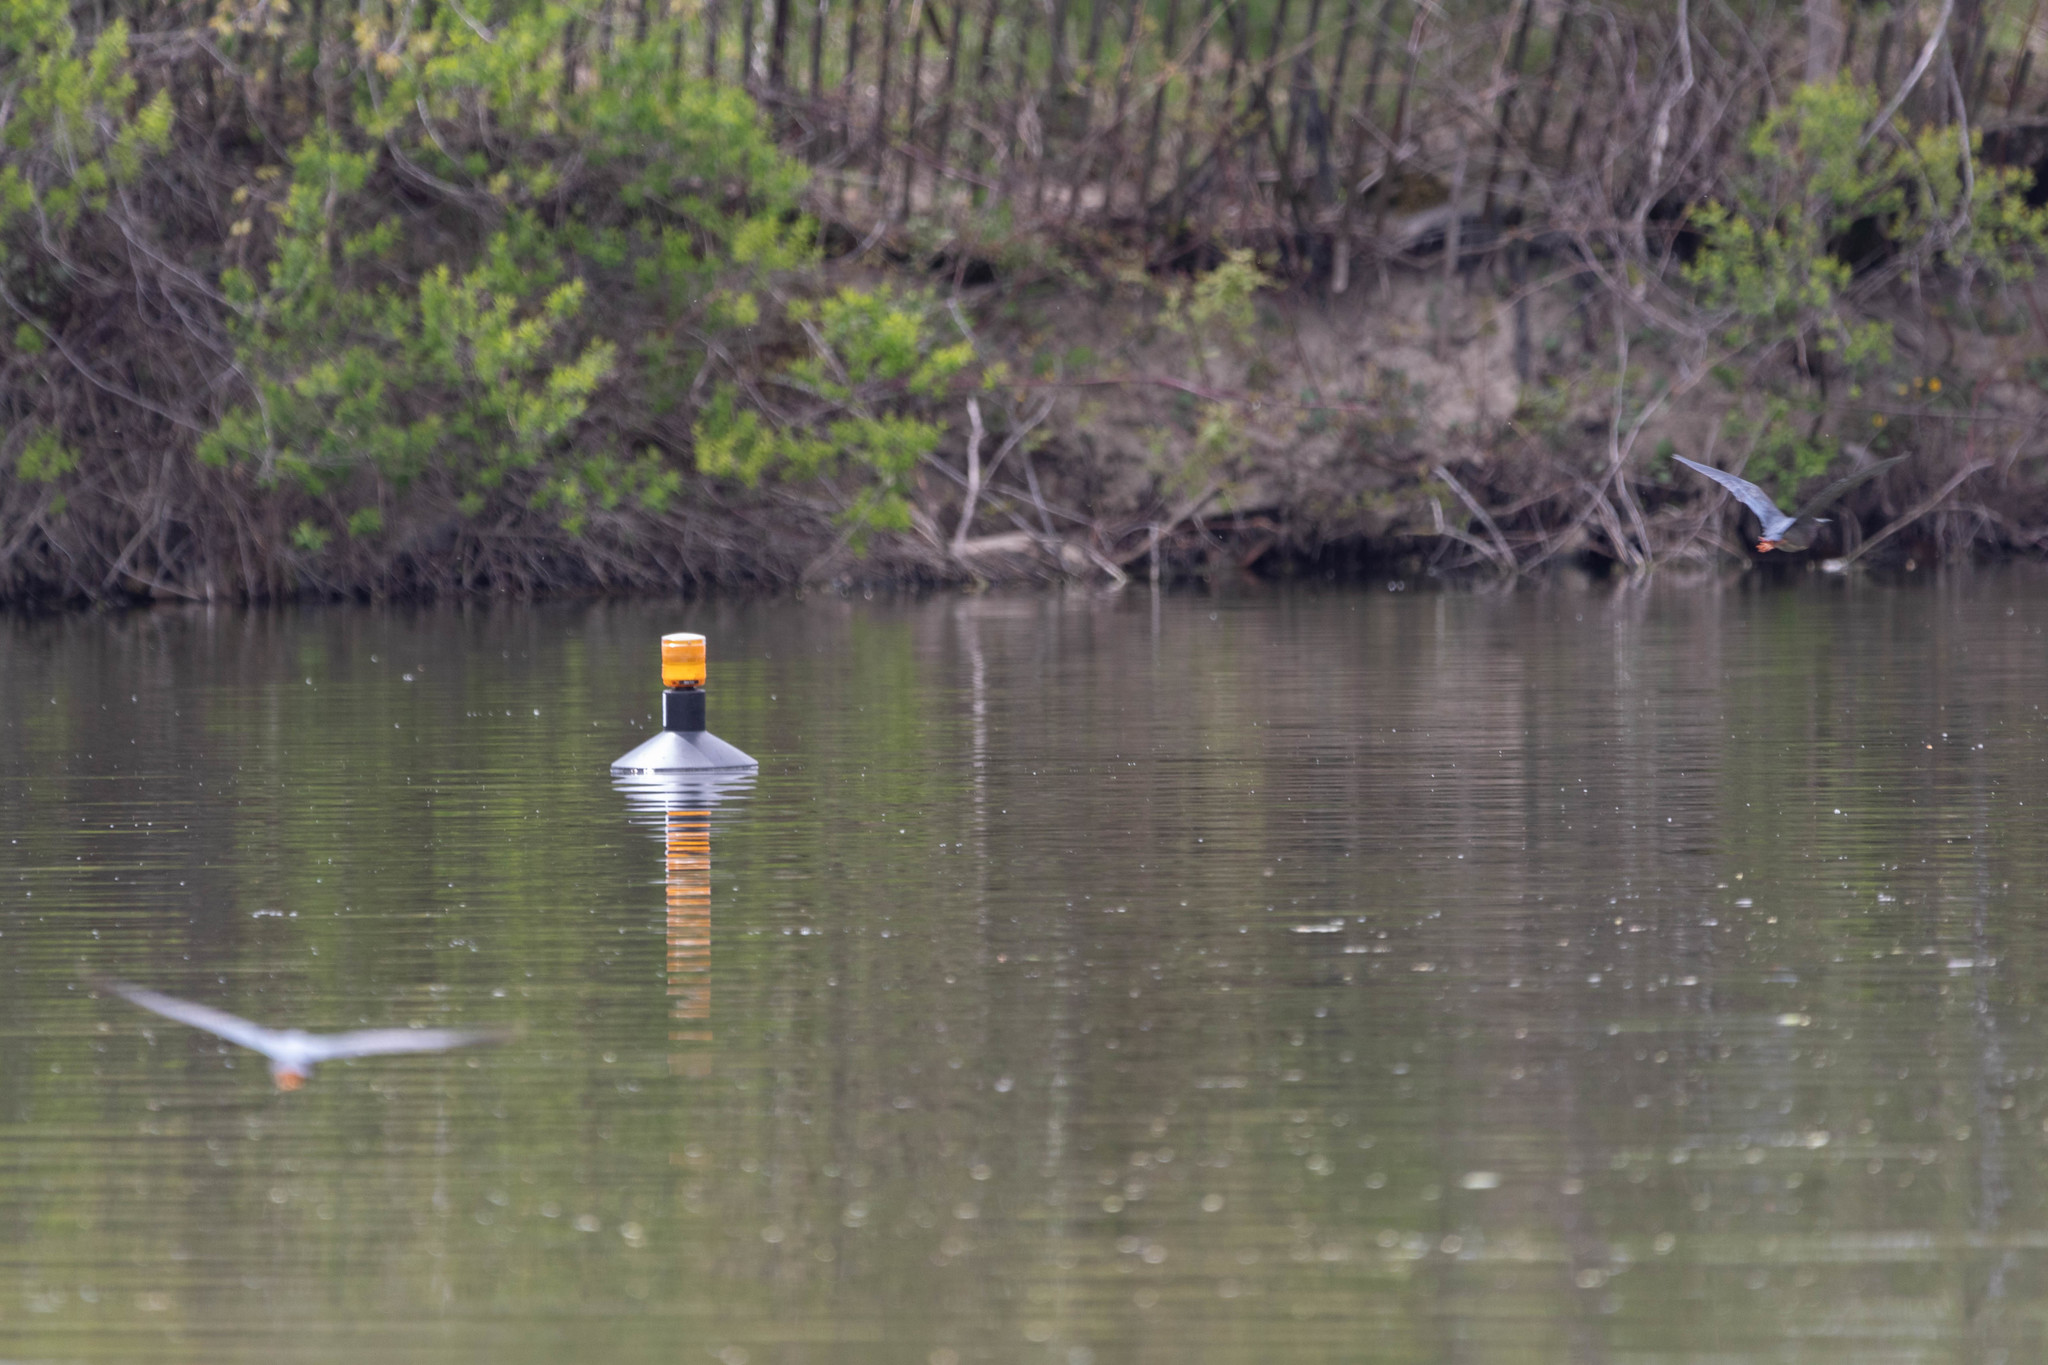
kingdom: Animalia
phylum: Chordata
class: Aves
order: Pelecaniformes
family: Ardeidae
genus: Butorides
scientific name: Butorides virescens
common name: Green heron
